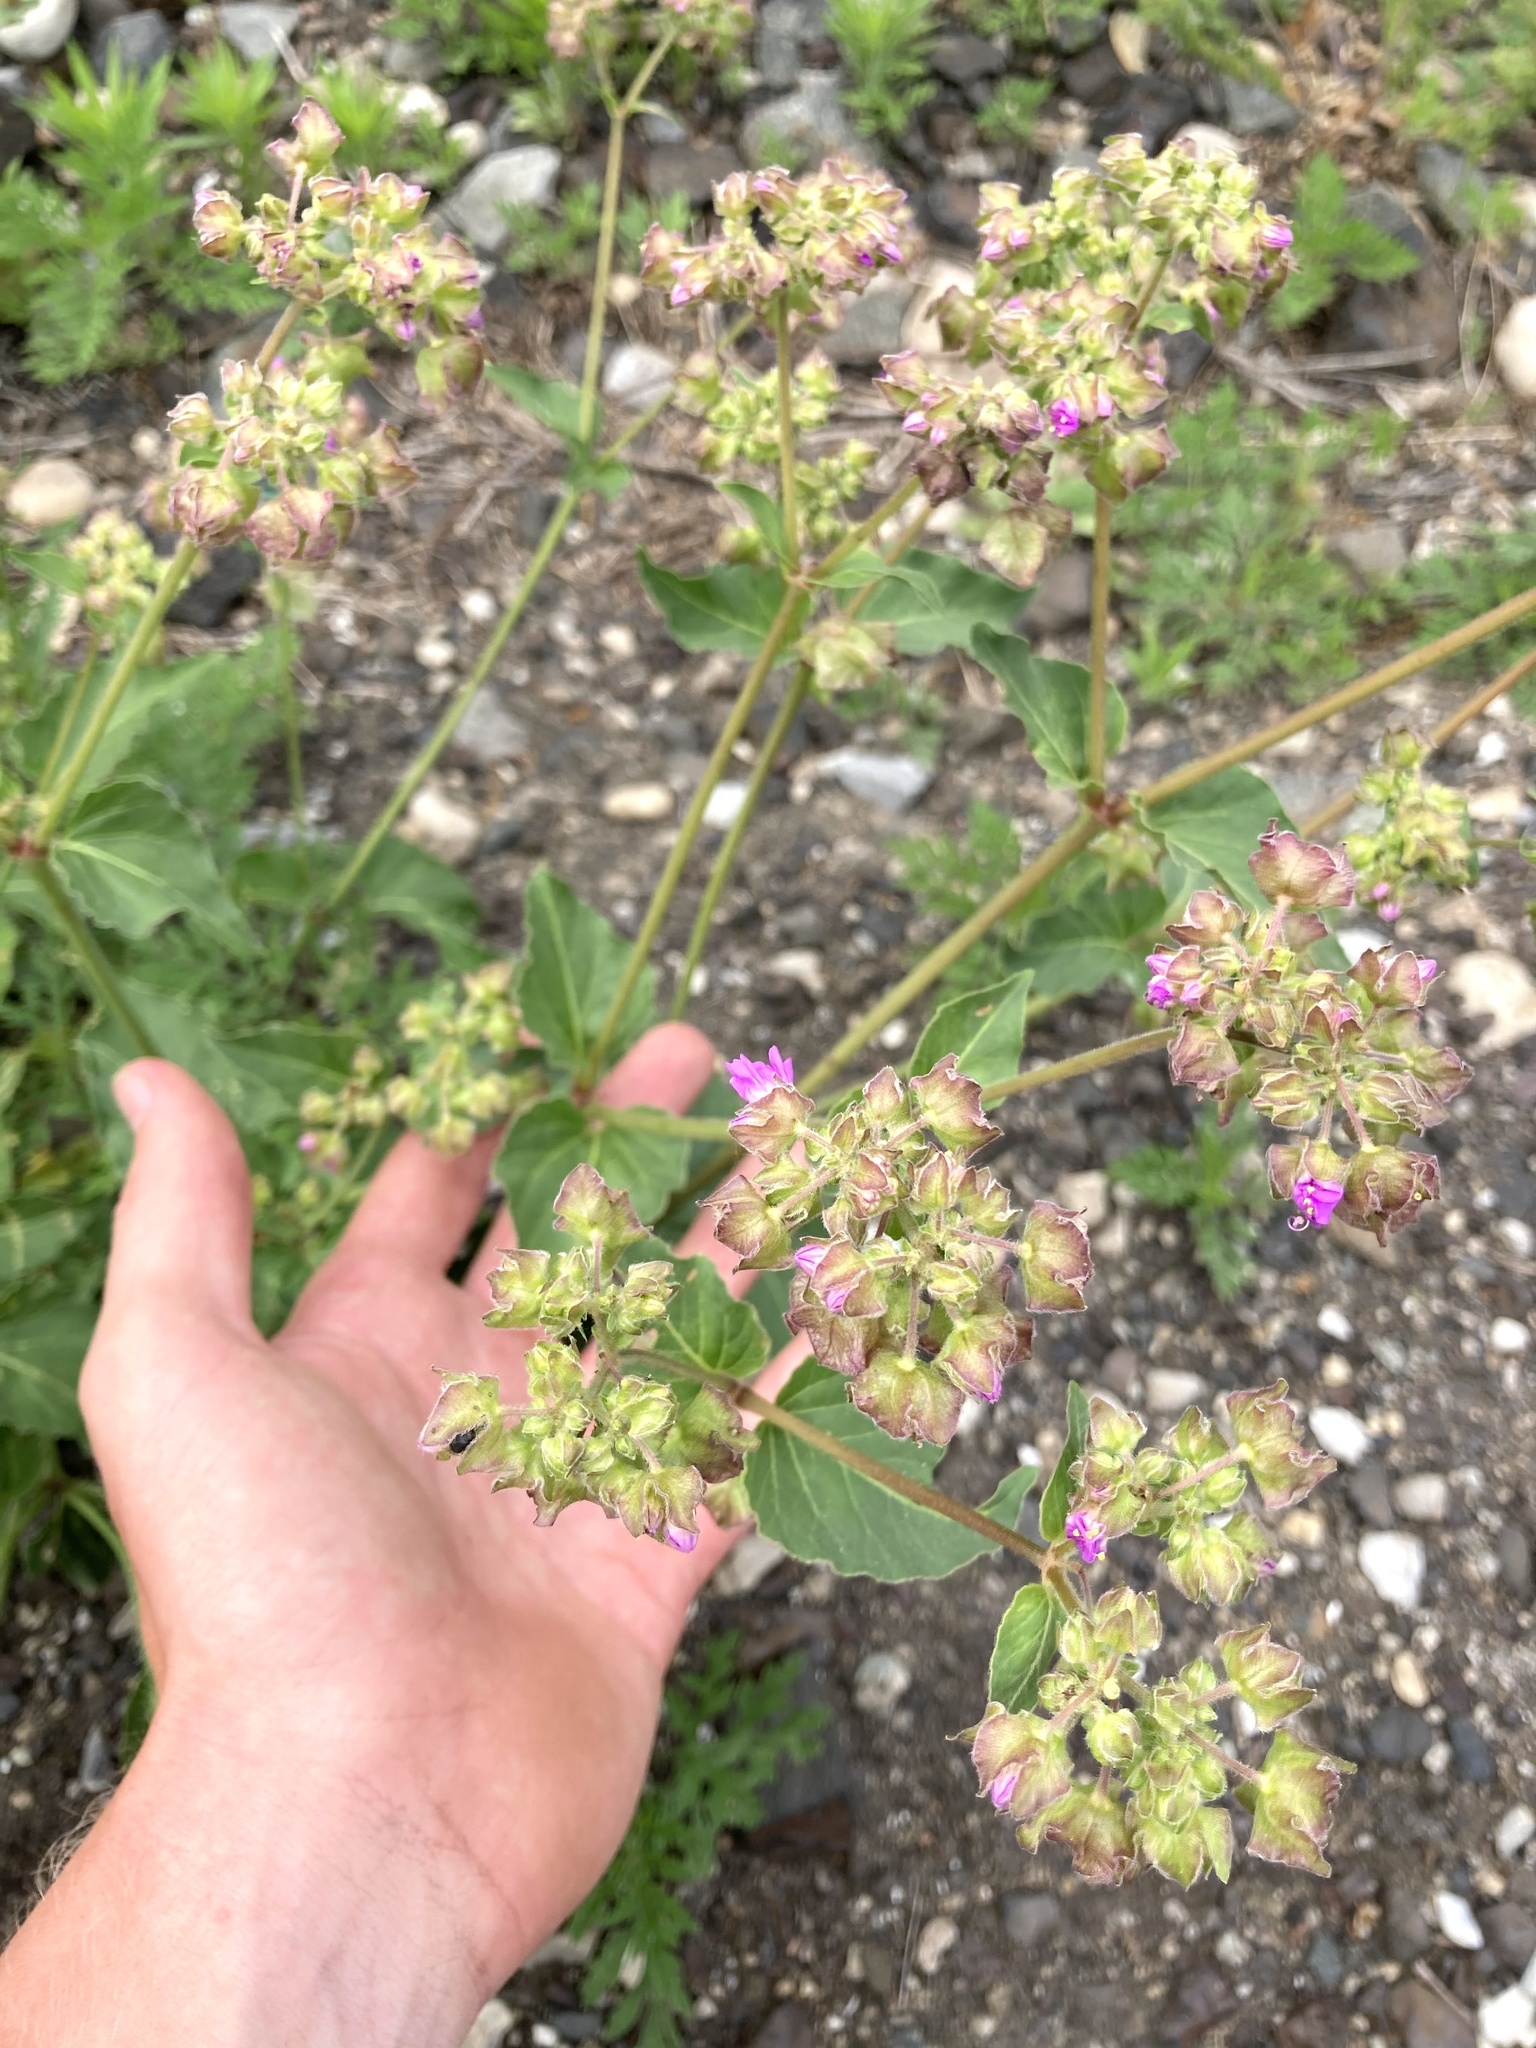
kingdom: Plantae
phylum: Tracheophyta
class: Magnoliopsida
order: Caryophyllales
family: Nyctaginaceae
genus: Mirabilis
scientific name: Mirabilis nyctaginea
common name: Umbrella wort
